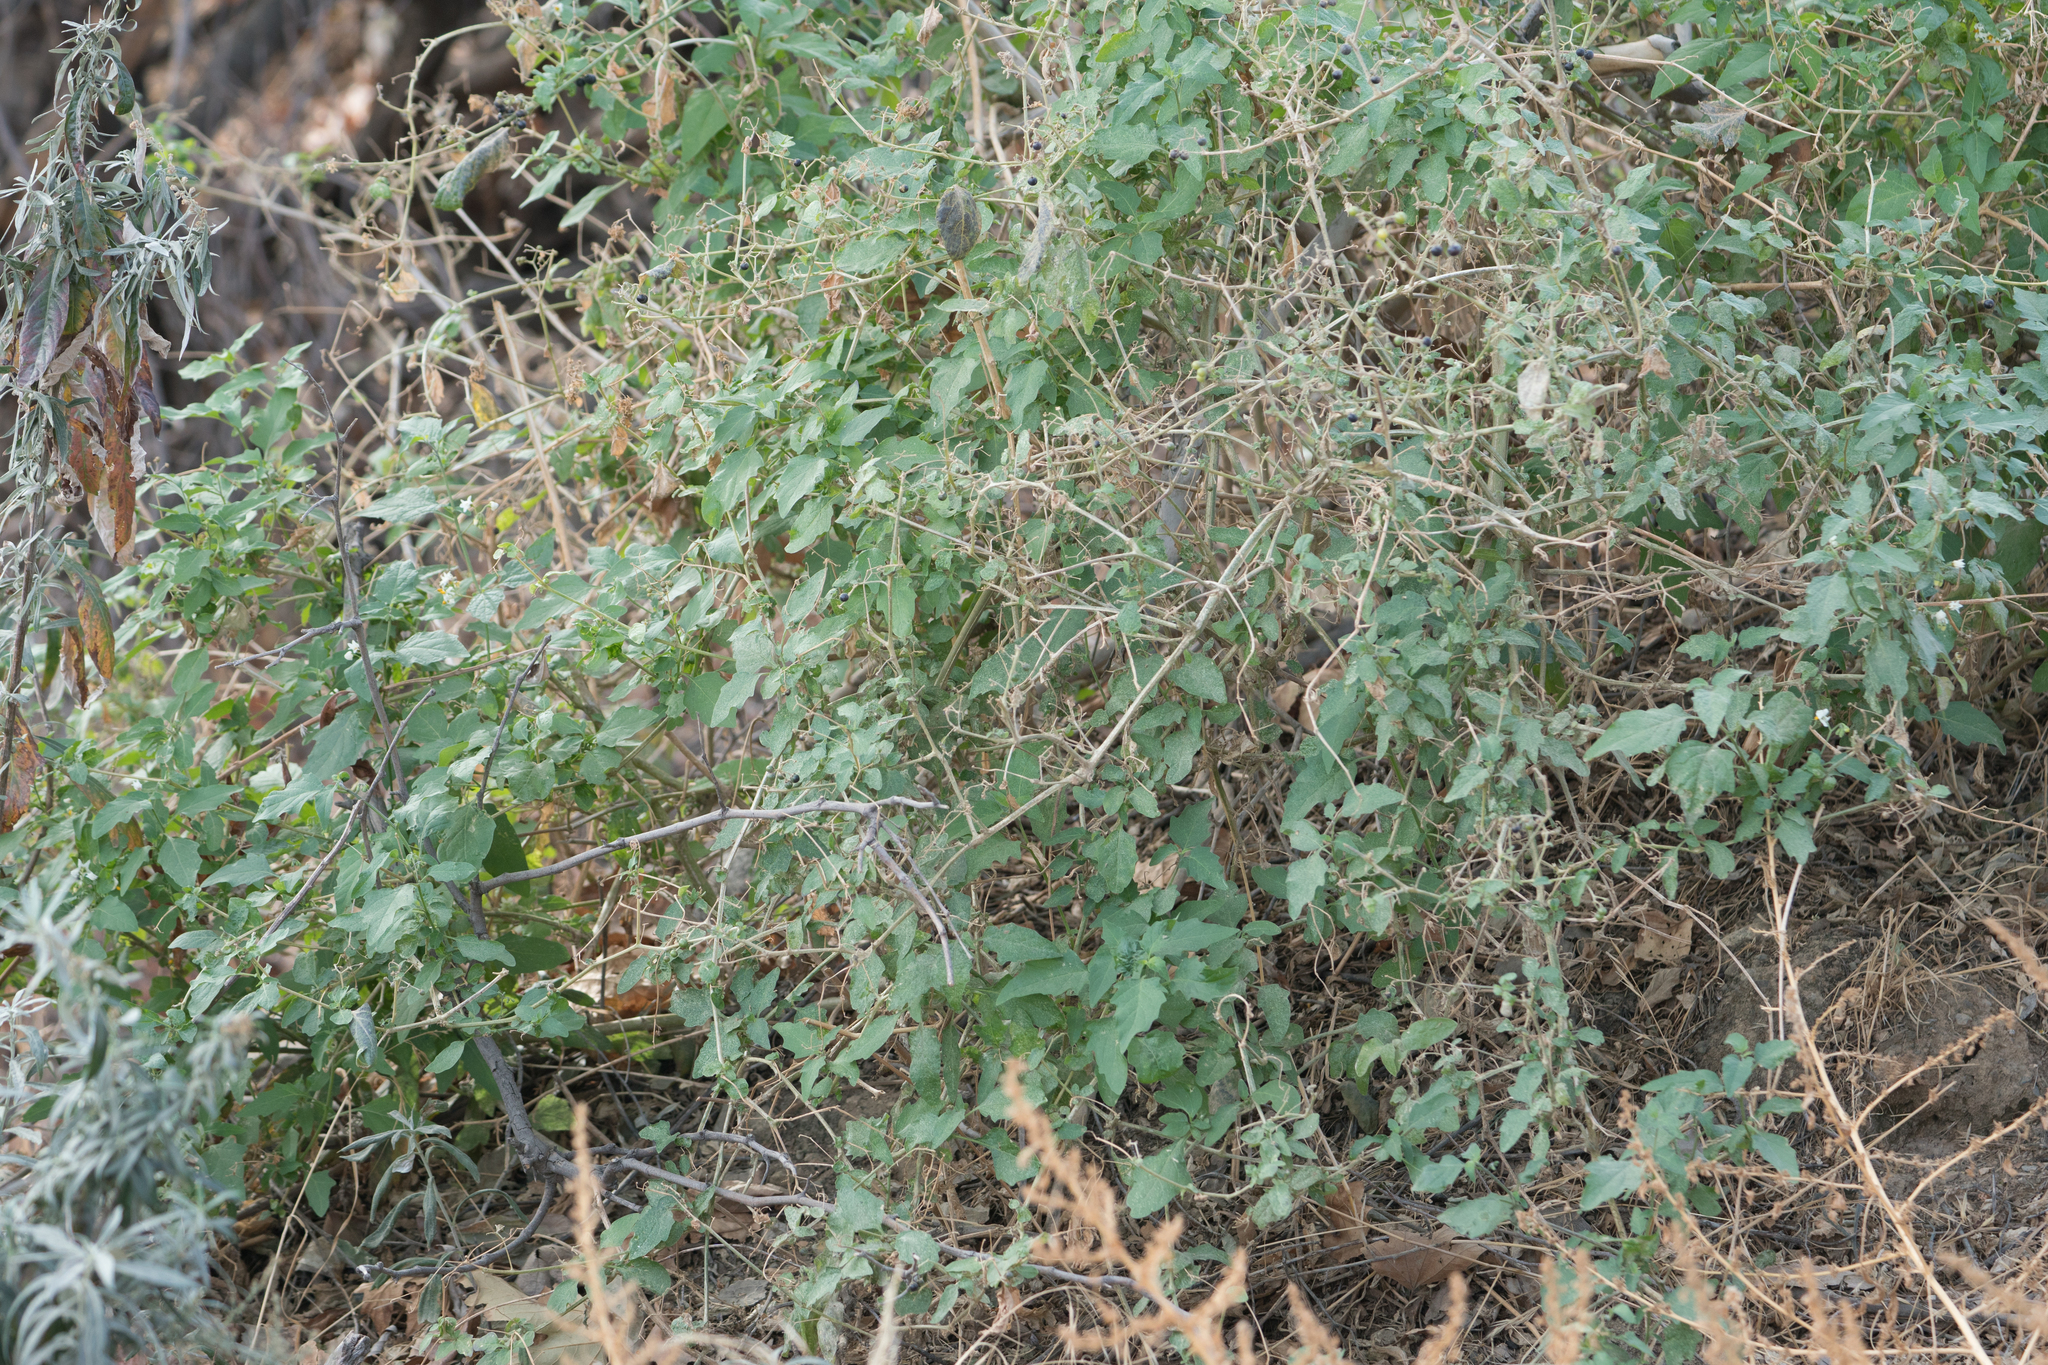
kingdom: Plantae
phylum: Tracheophyta
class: Magnoliopsida
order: Solanales
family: Solanaceae
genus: Solanum
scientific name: Solanum douglasii
